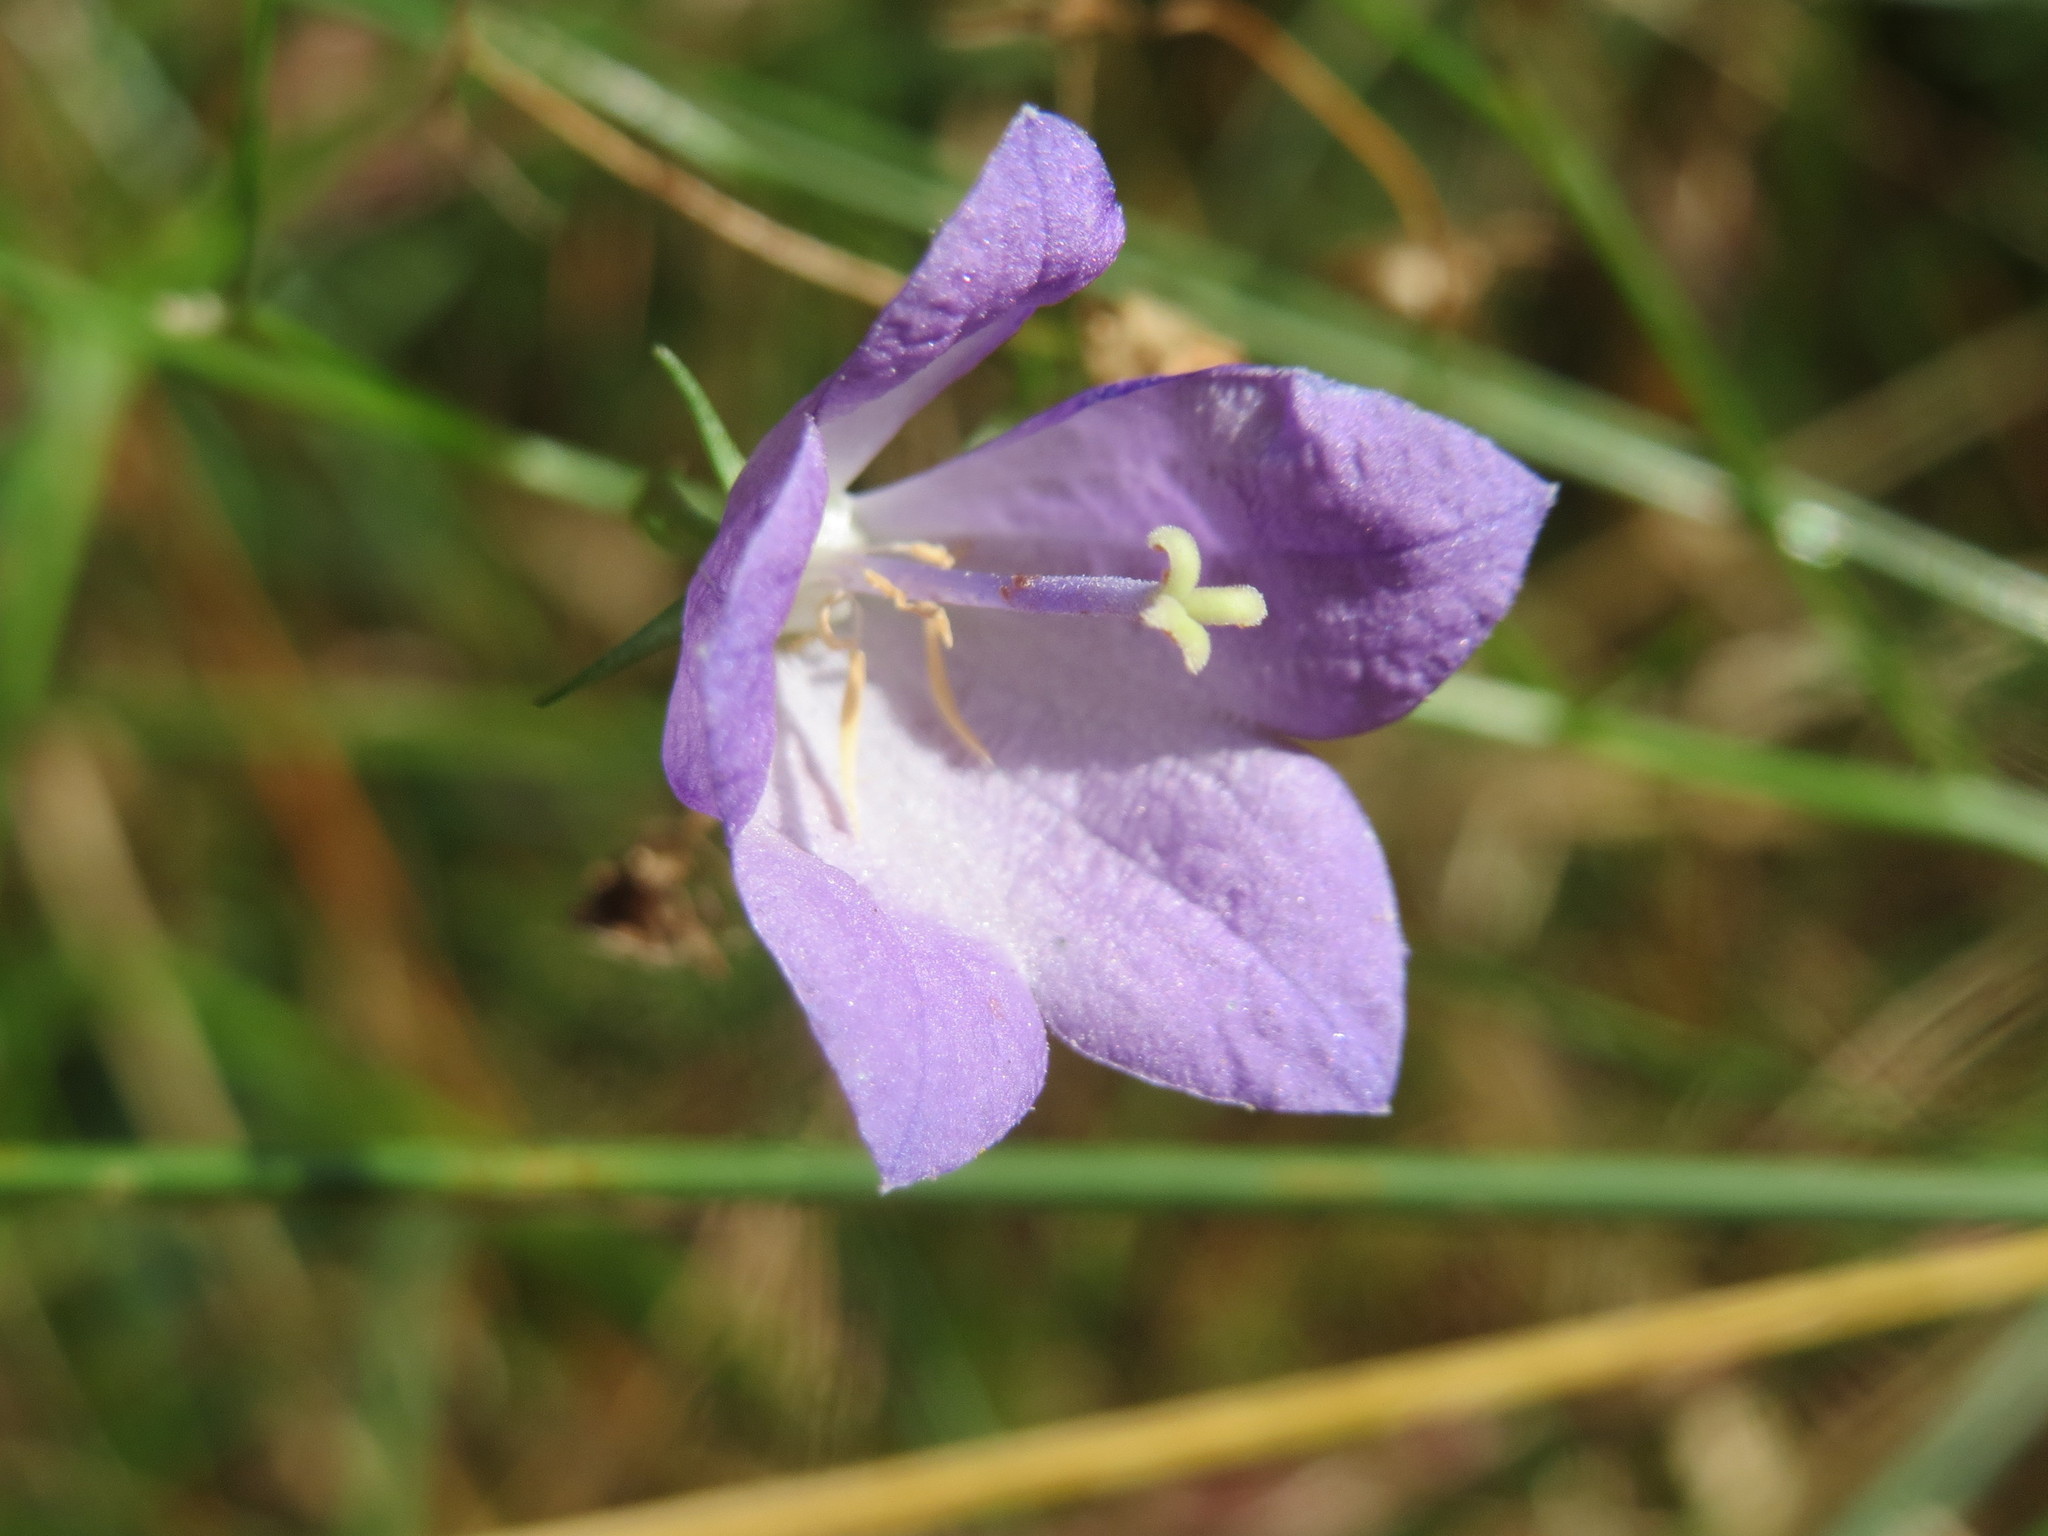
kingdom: Plantae
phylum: Tracheophyta
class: Magnoliopsida
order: Asterales
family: Campanulaceae
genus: Campanula
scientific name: Campanula rotundifolia
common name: Harebell
